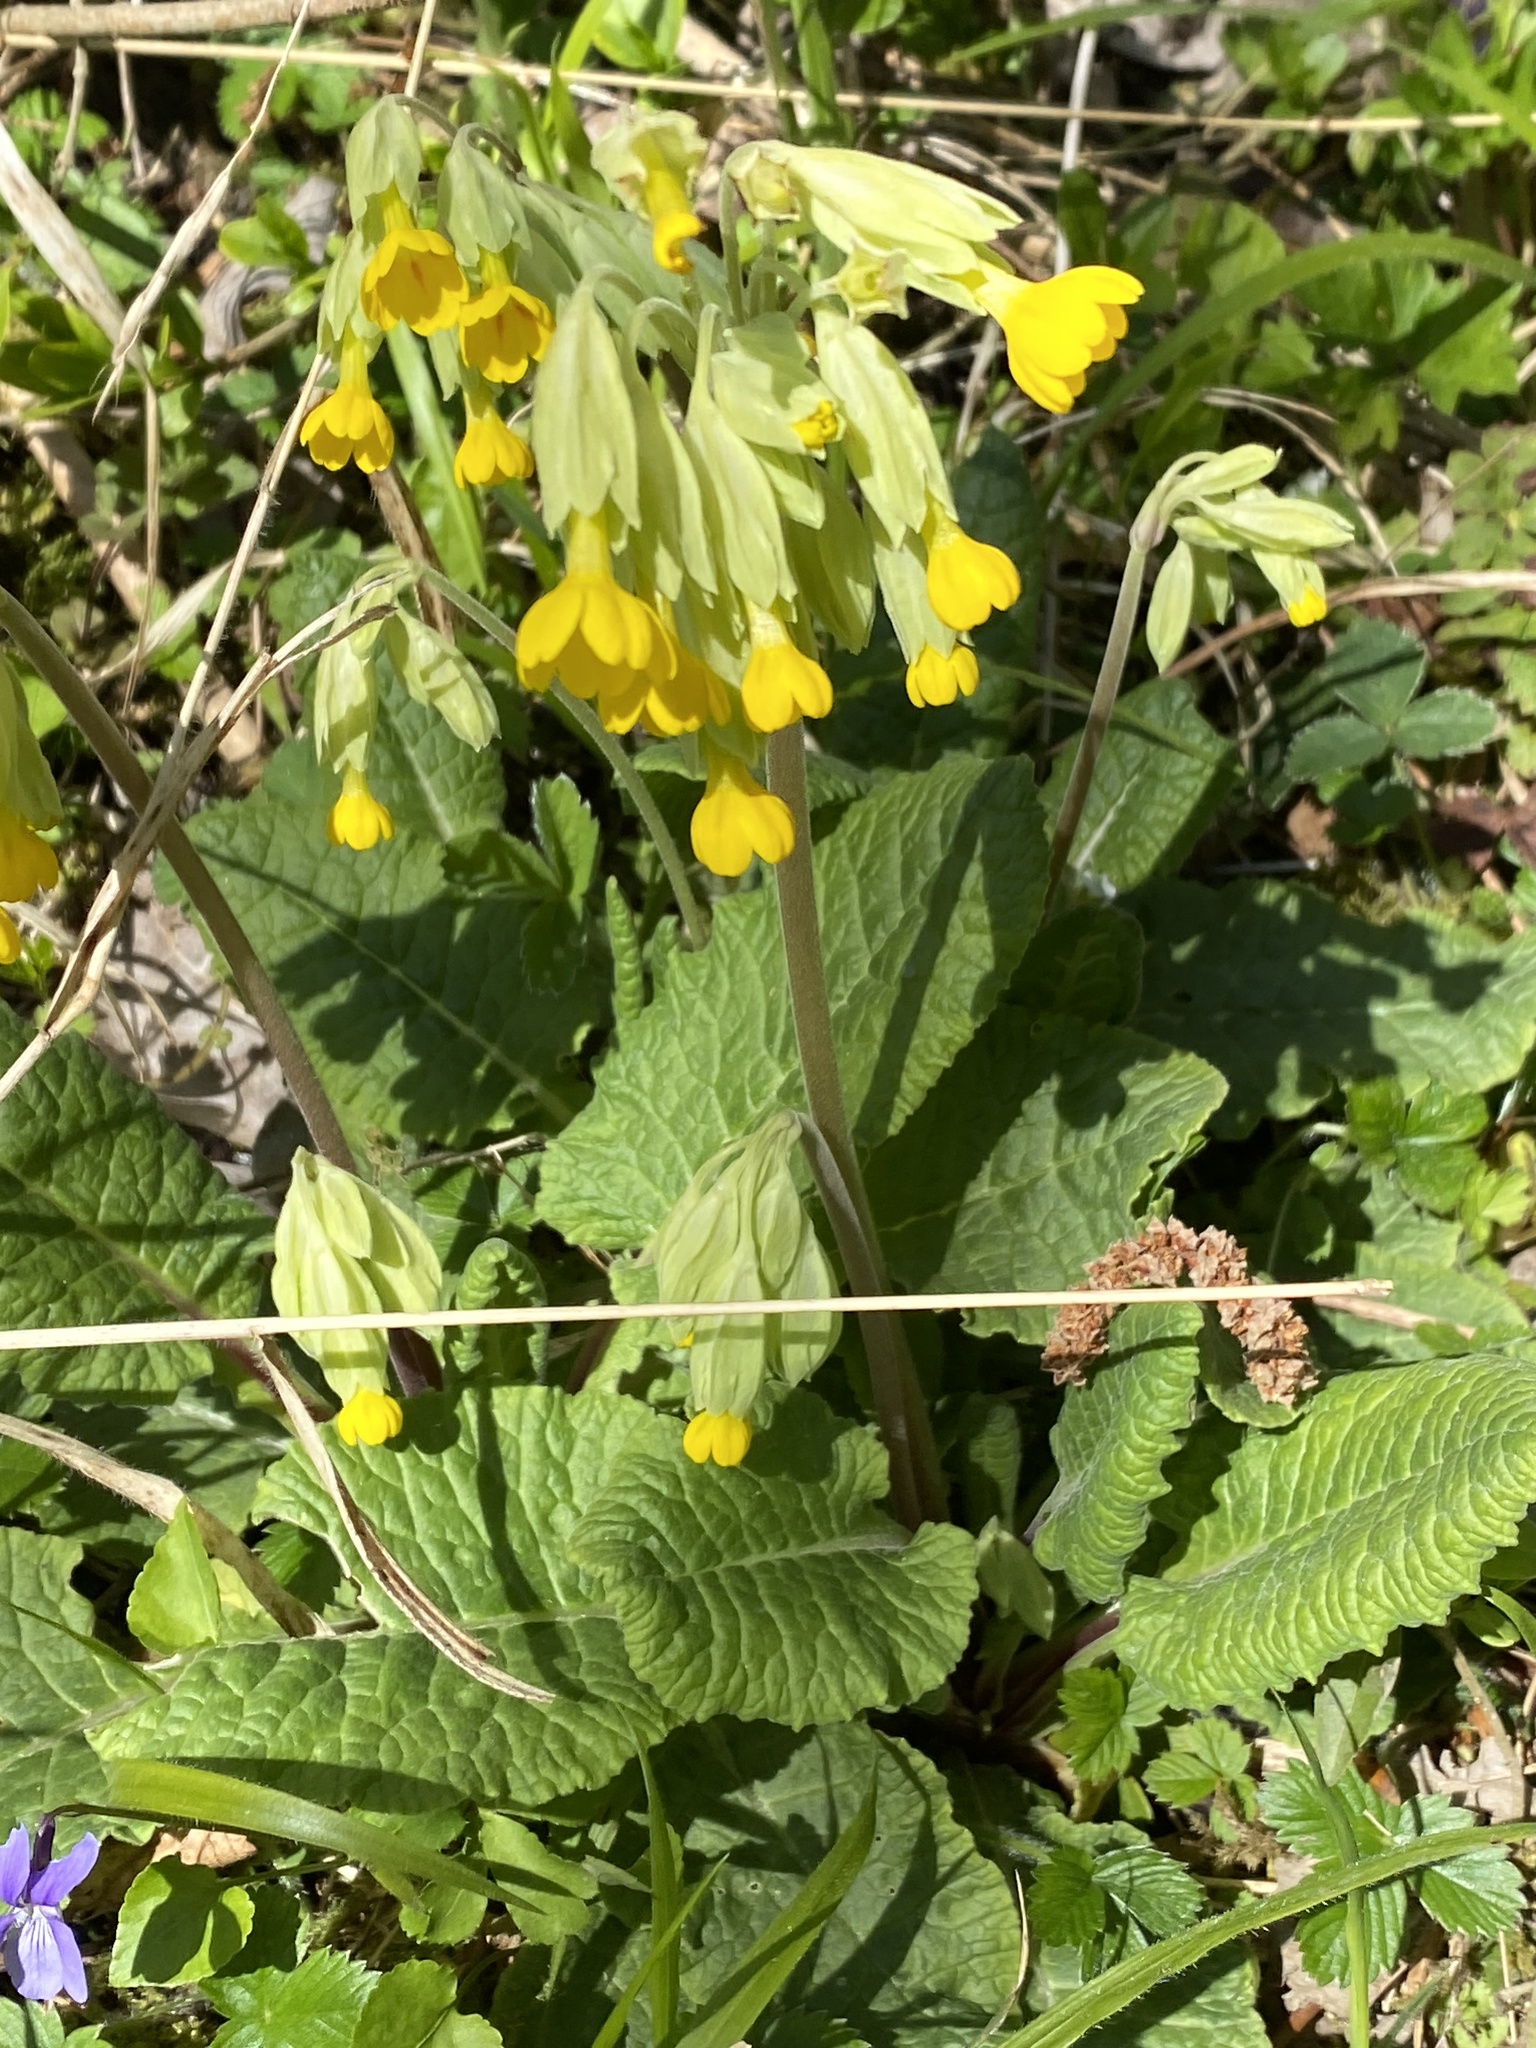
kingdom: Plantae
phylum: Tracheophyta
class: Magnoliopsida
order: Ericales
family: Primulaceae
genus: Primula
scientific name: Primula veris
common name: Cowslip
